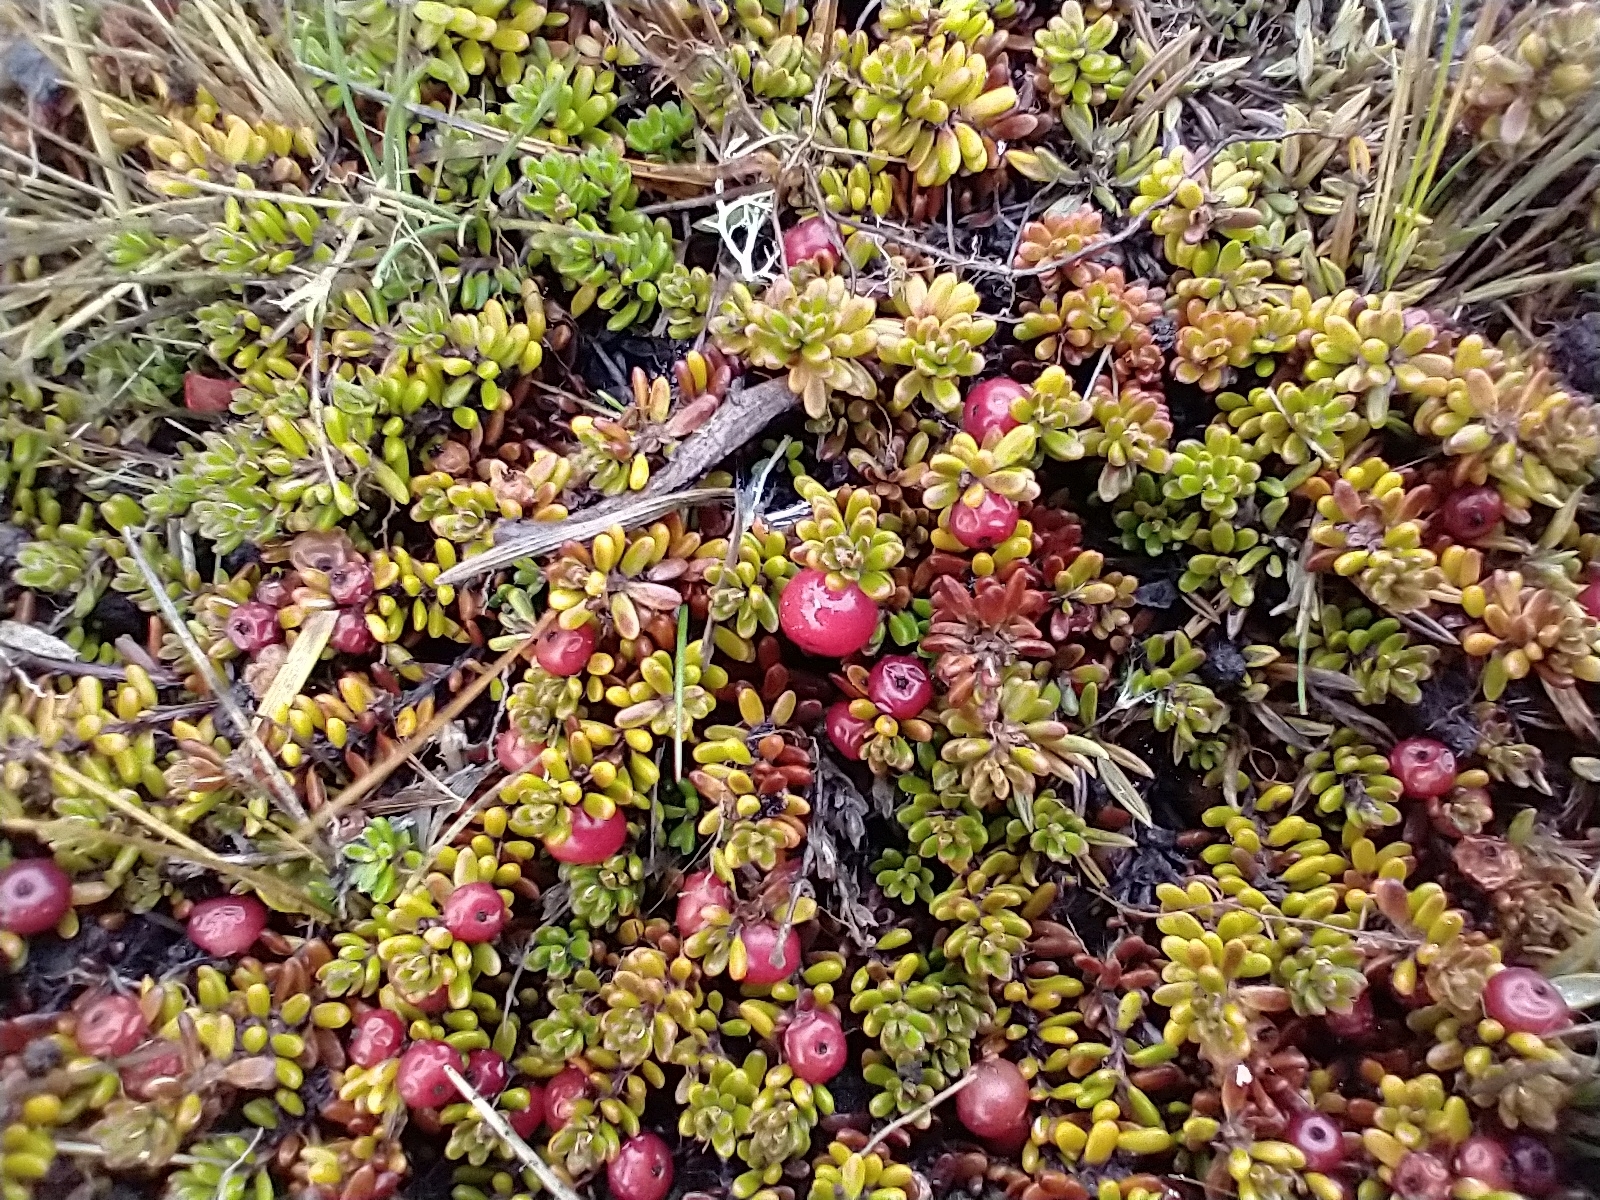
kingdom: Plantae
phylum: Tracheophyta
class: Magnoliopsida
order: Ericales
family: Ericaceae
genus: Empetrum
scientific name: Empetrum rubrum
